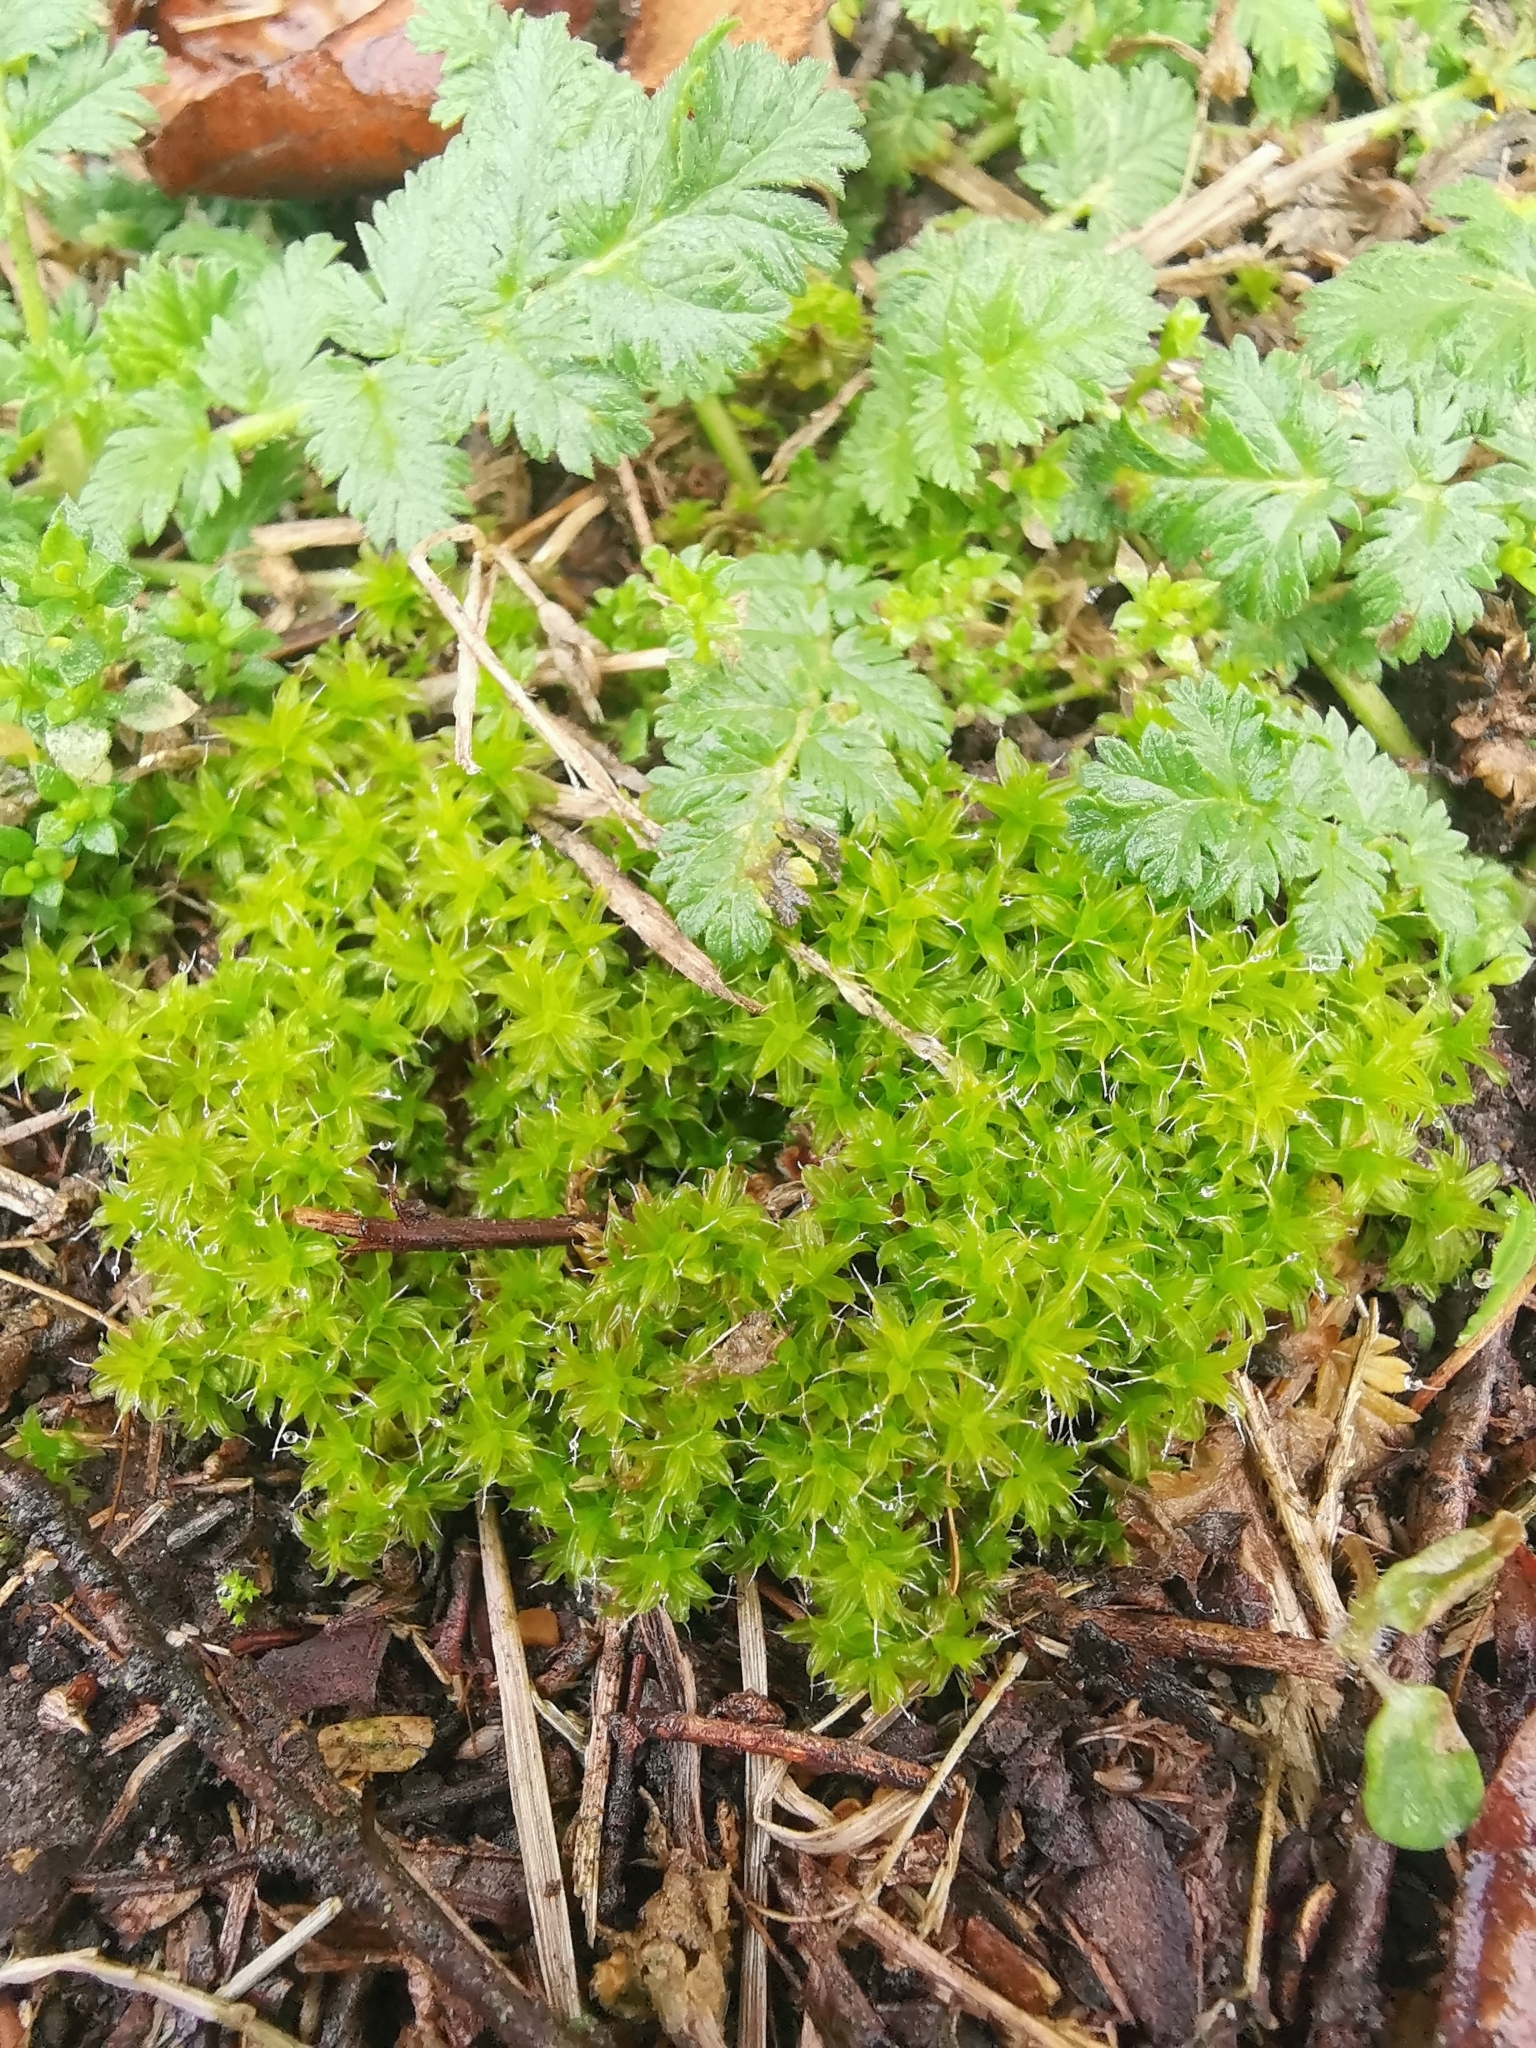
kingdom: Plantae
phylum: Bryophyta
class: Bryopsida
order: Pottiales
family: Pottiaceae
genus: Syntrichia
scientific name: Syntrichia ruralis
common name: Sidewalk screw moss
